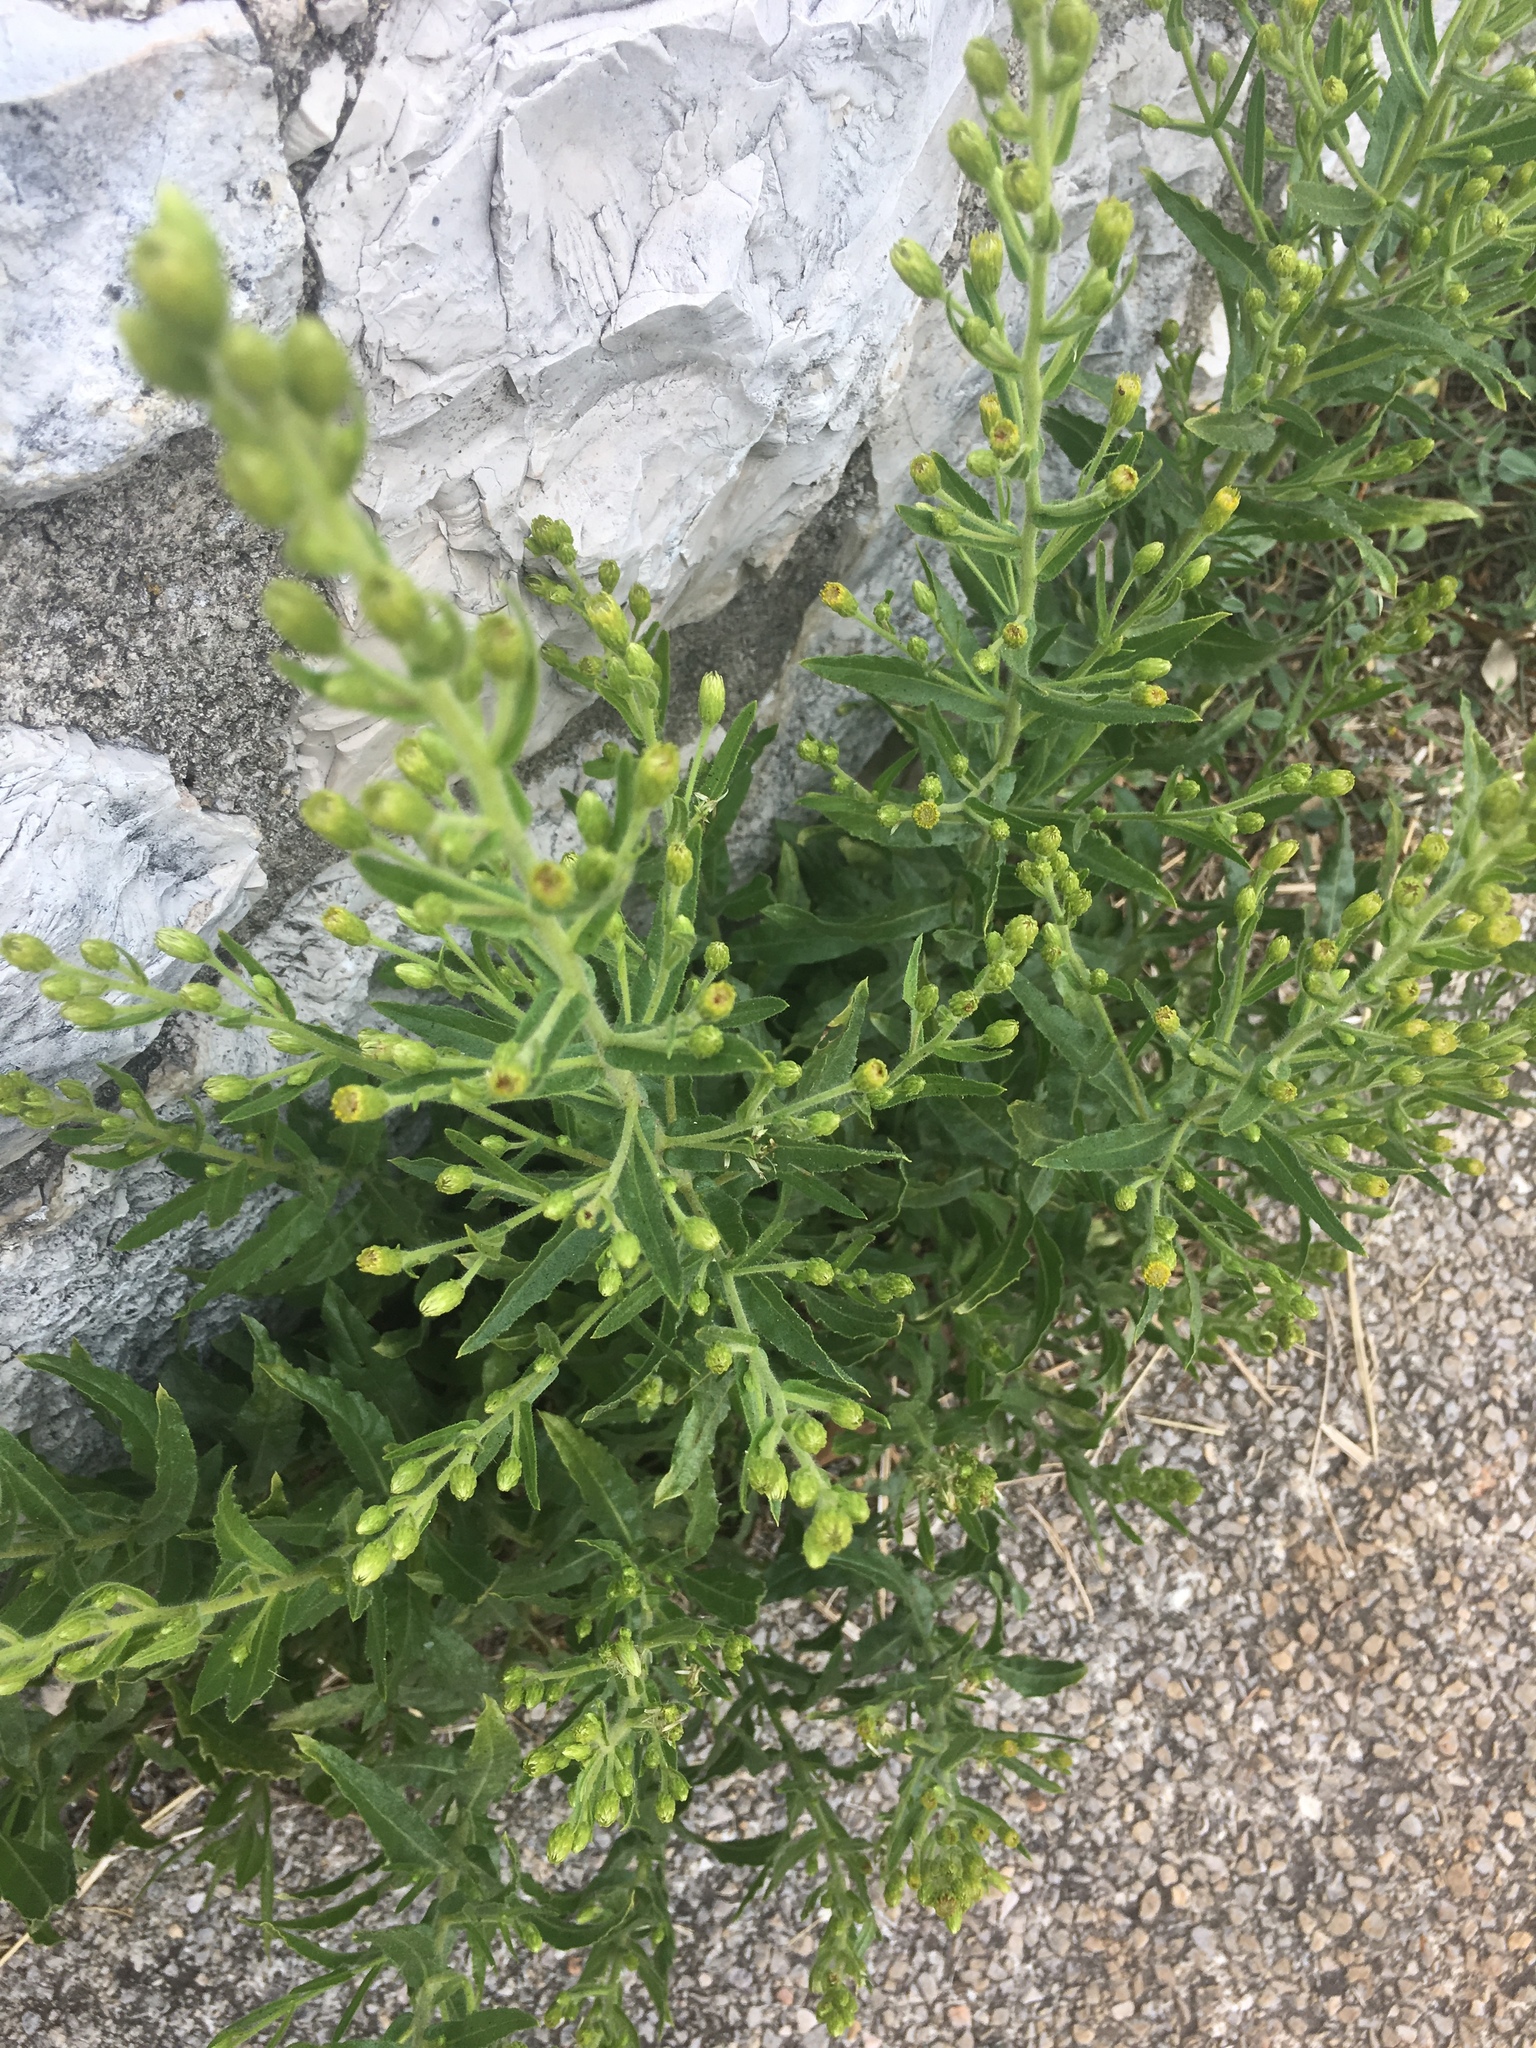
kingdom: Plantae
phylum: Tracheophyta
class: Magnoliopsida
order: Asterales
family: Asteraceae
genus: Dittrichia
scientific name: Dittrichia viscosa
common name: Woody fleabane
